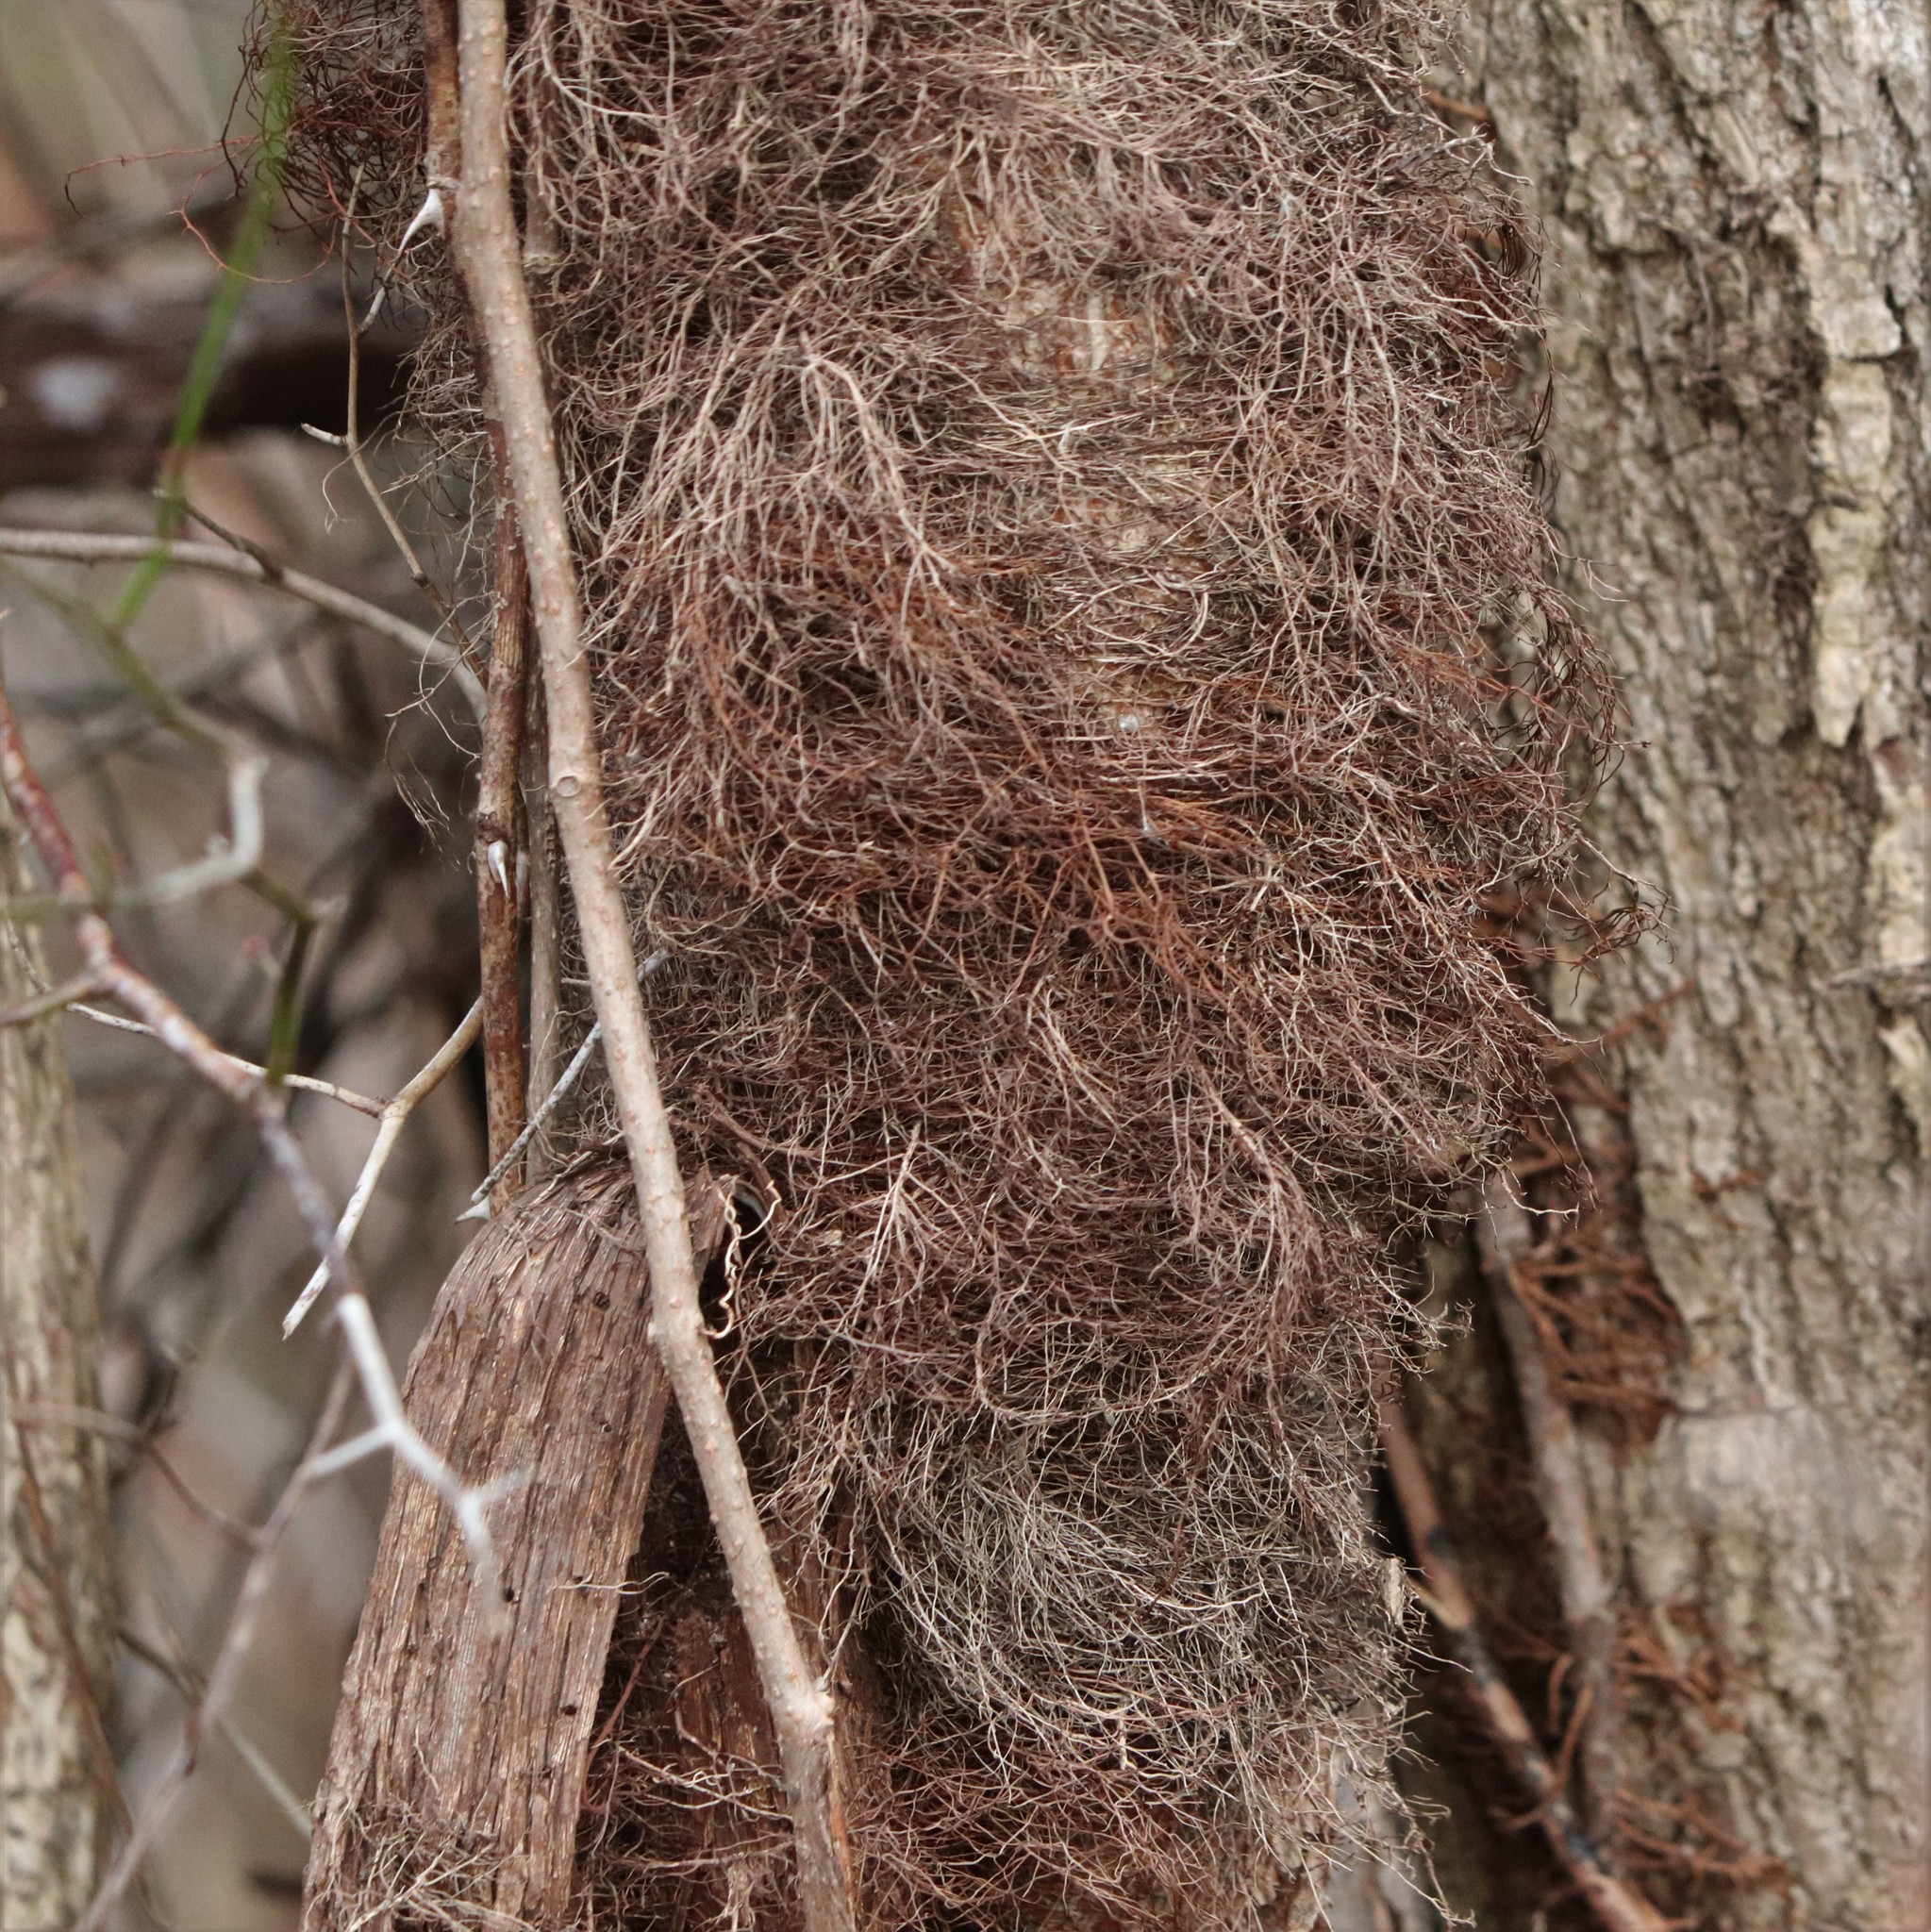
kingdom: Plantae
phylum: Tracheophyta
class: Magnoliopsida
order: Sapindales
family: Anacardiaceae
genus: Toxicodendron
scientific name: Toxicodendron radicans
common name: Poison ivy
